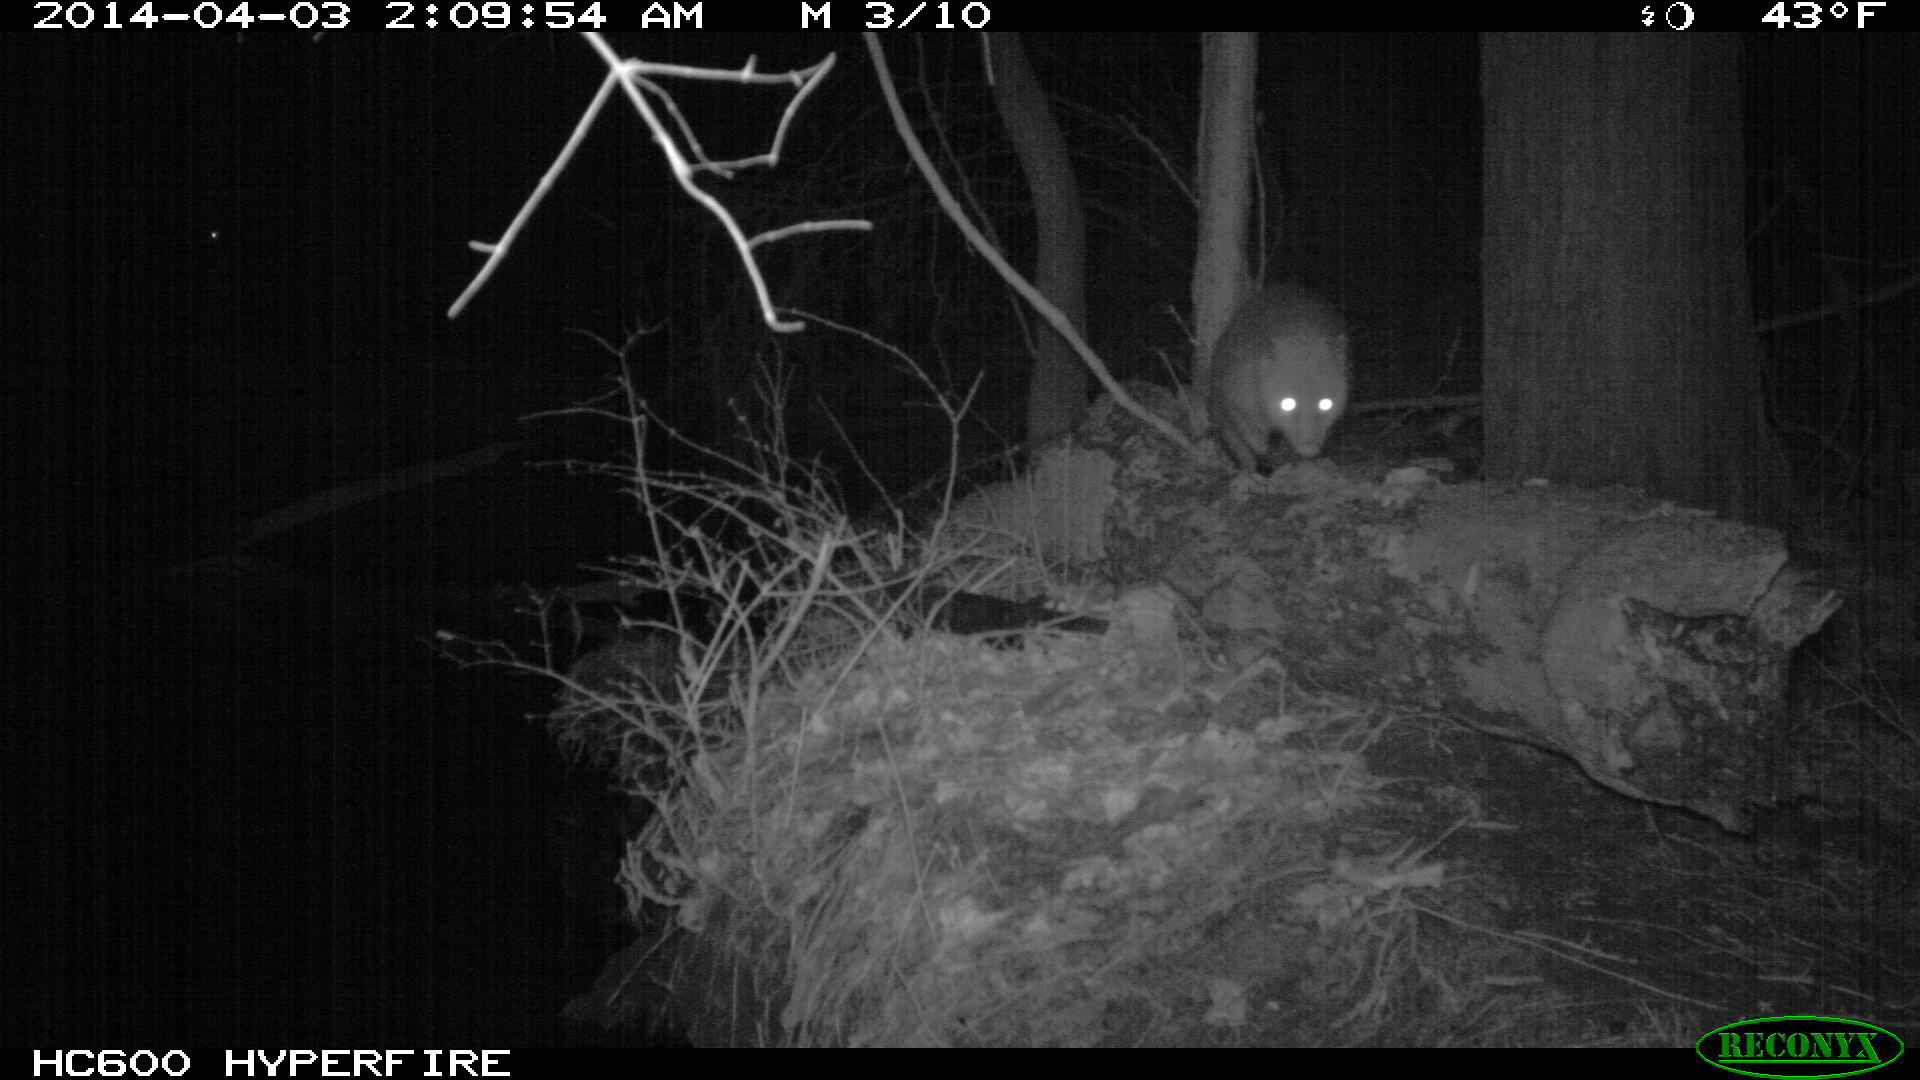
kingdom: Animalia
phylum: Chordata
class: Mammalia
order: Didelphimorphia
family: Didelphidae
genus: Didelphis
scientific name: Didelphis virginiana
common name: Virginia opossum
